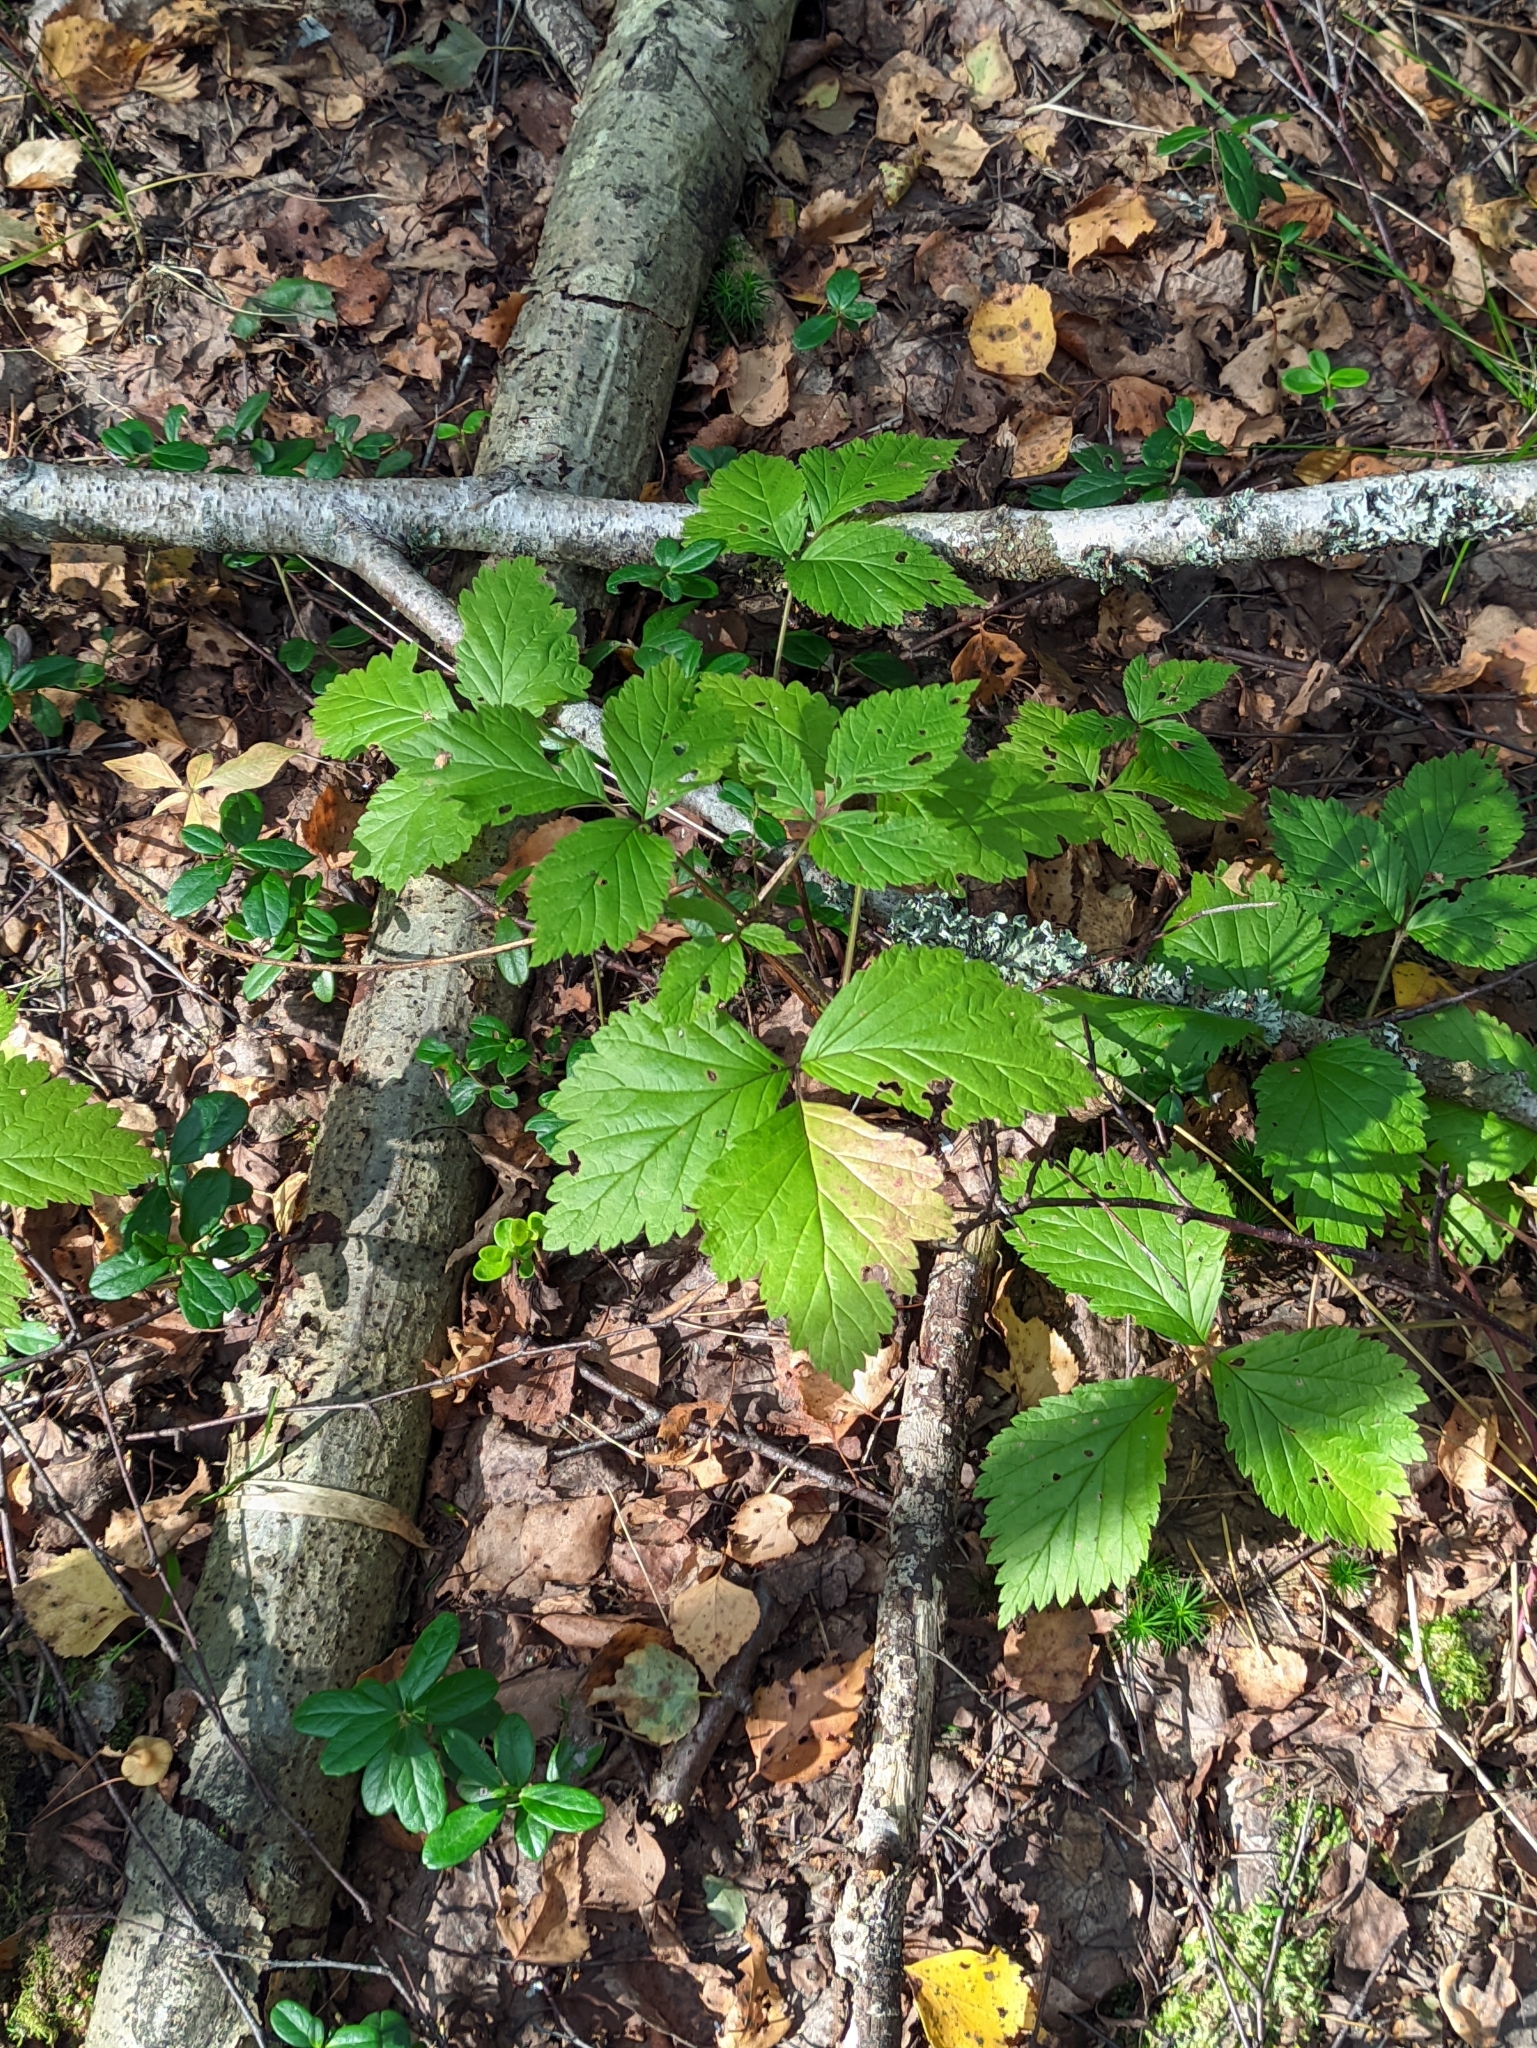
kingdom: Plantae
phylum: Tracheophyta
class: Magnoliopsida
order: Rosales
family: Rosaceae
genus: Rubus
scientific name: Rubus saxatilis
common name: Stone bramble
